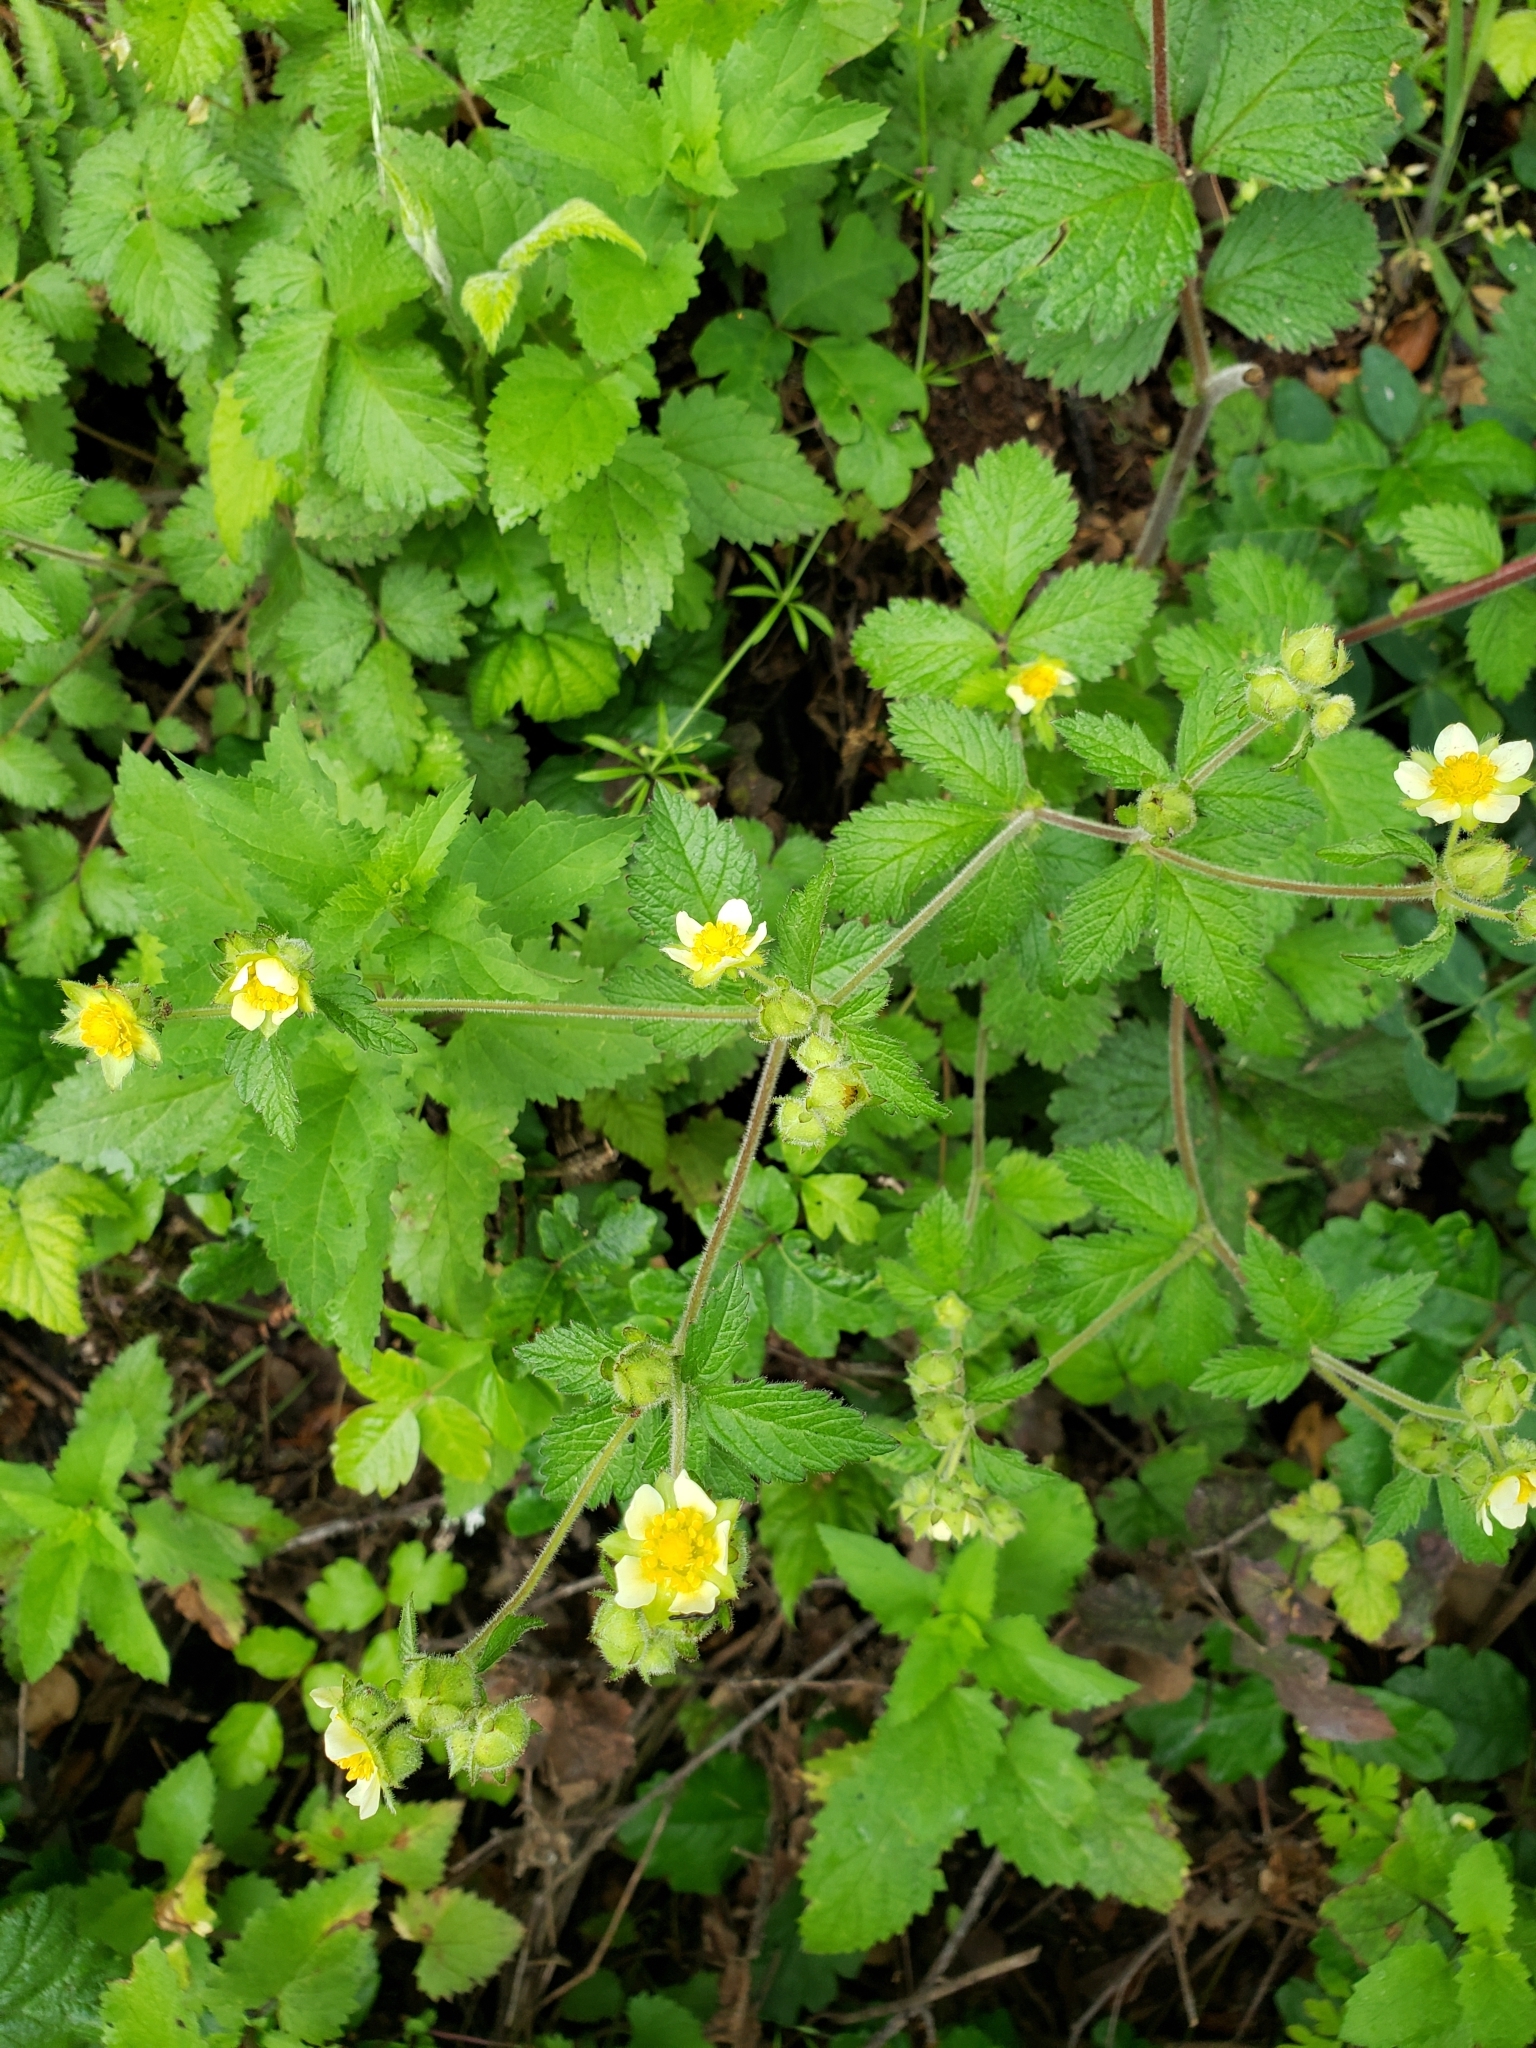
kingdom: Plantae
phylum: Tracheophyta
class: Magnoliopsida
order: Rosales
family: Rosaceae
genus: Drymocallis
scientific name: Drymocallis glandulosa
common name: Sticky cinquefoil
